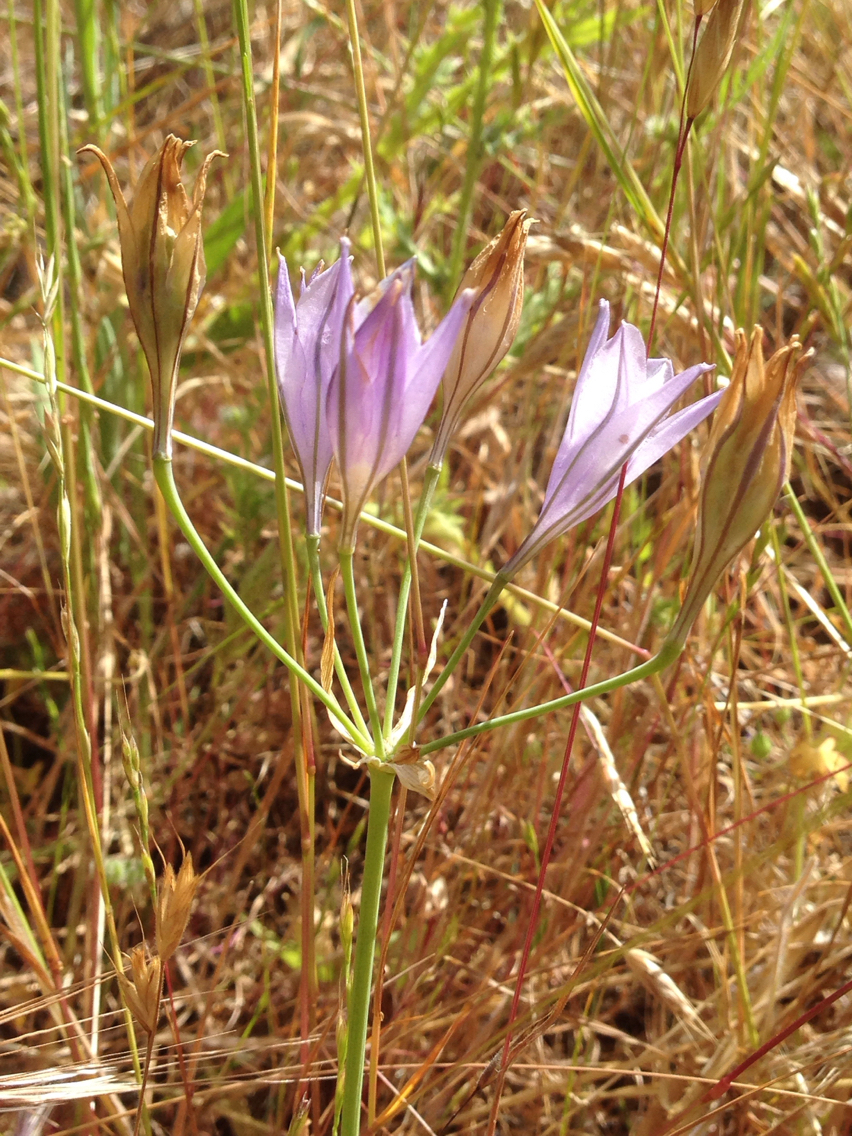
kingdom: Plantae
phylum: Tracheophyta
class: Liliopsida
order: Asparagales
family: Asparagaceae
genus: Triteleia
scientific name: Triteleia laxa
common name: Triplet-lily
